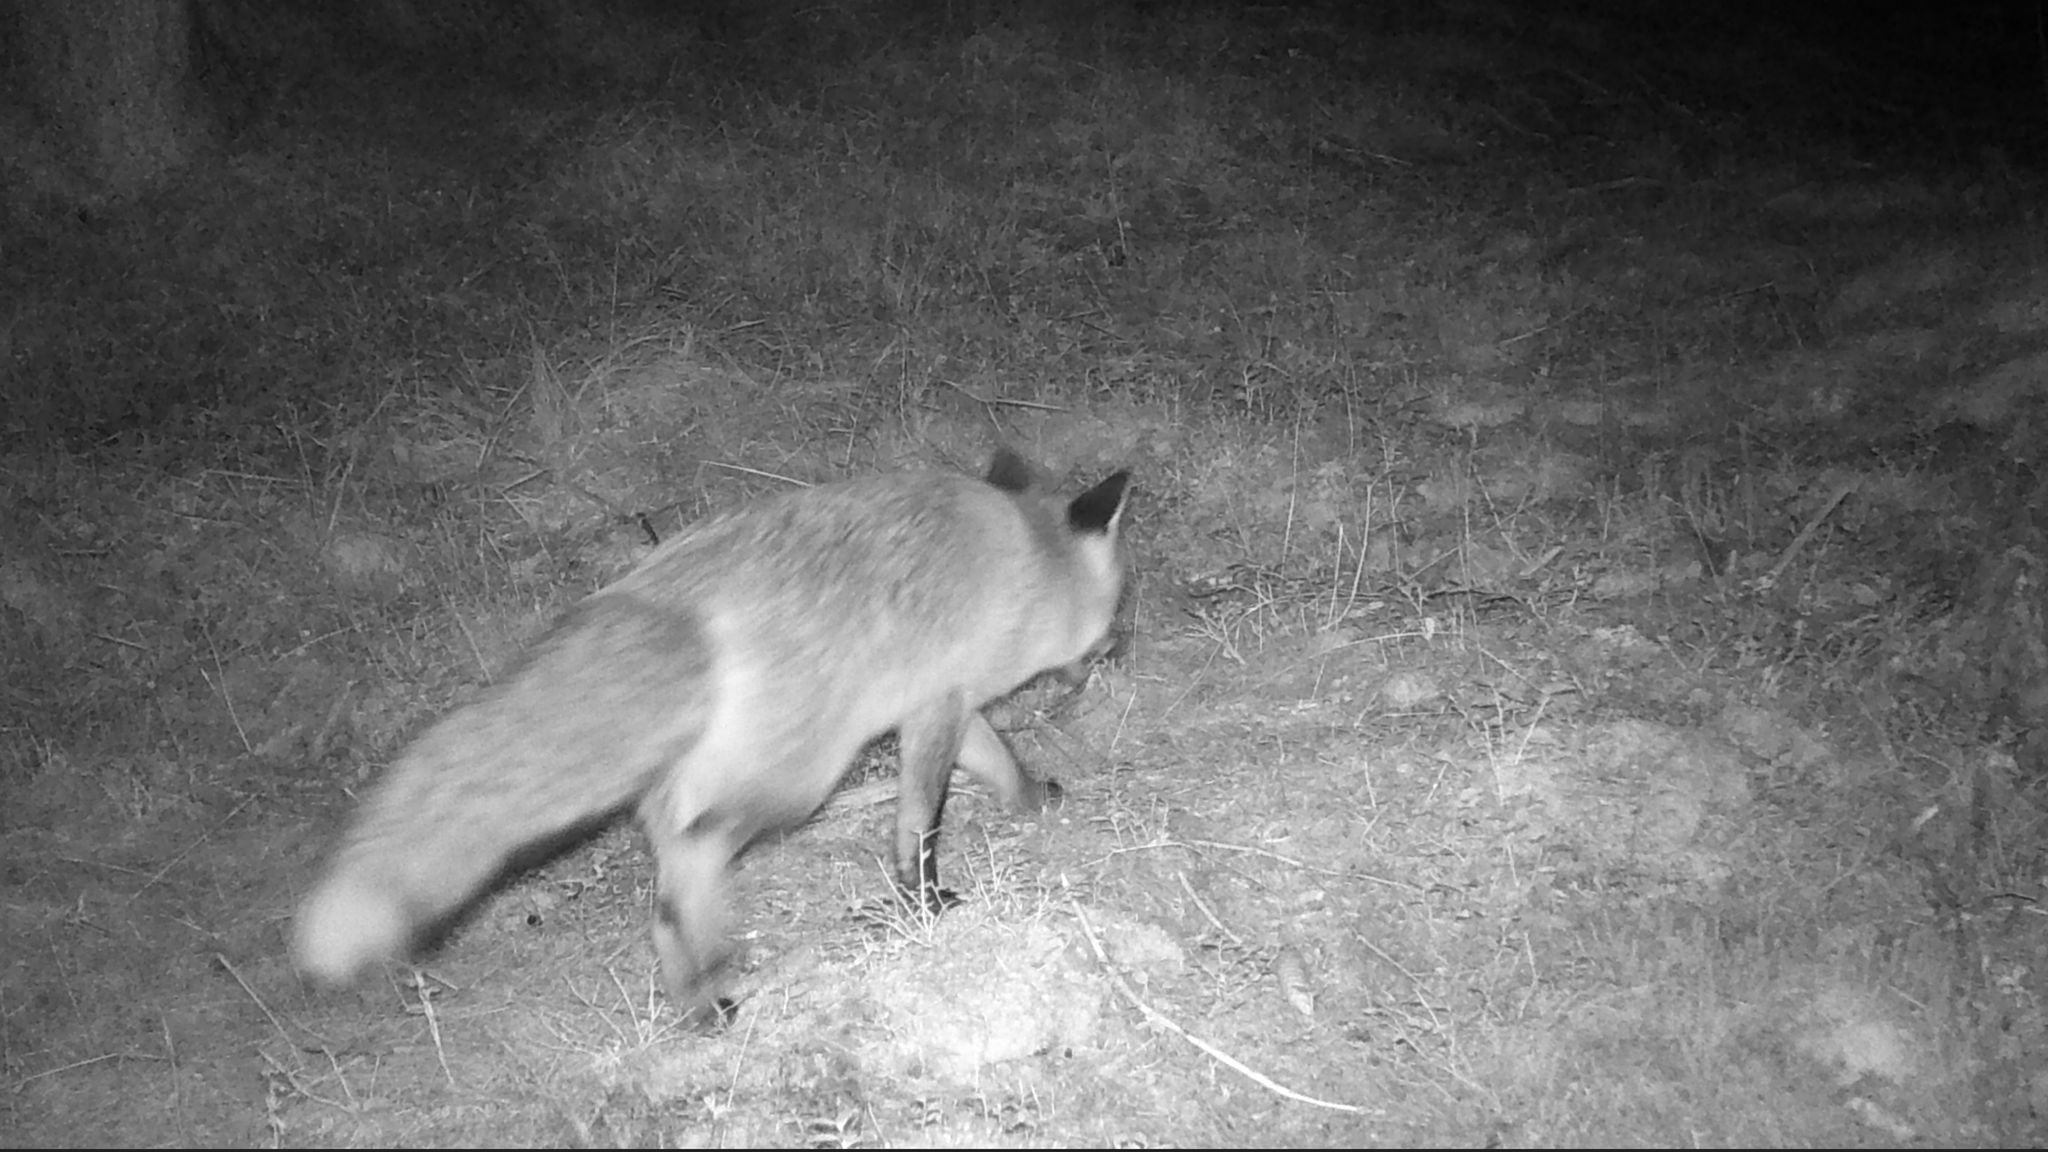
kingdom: Animalia
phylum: Chordata
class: Mammalia
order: Carnivora
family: Canidae
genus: Vulpes
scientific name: Vulpes vulpes
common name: Red fox
